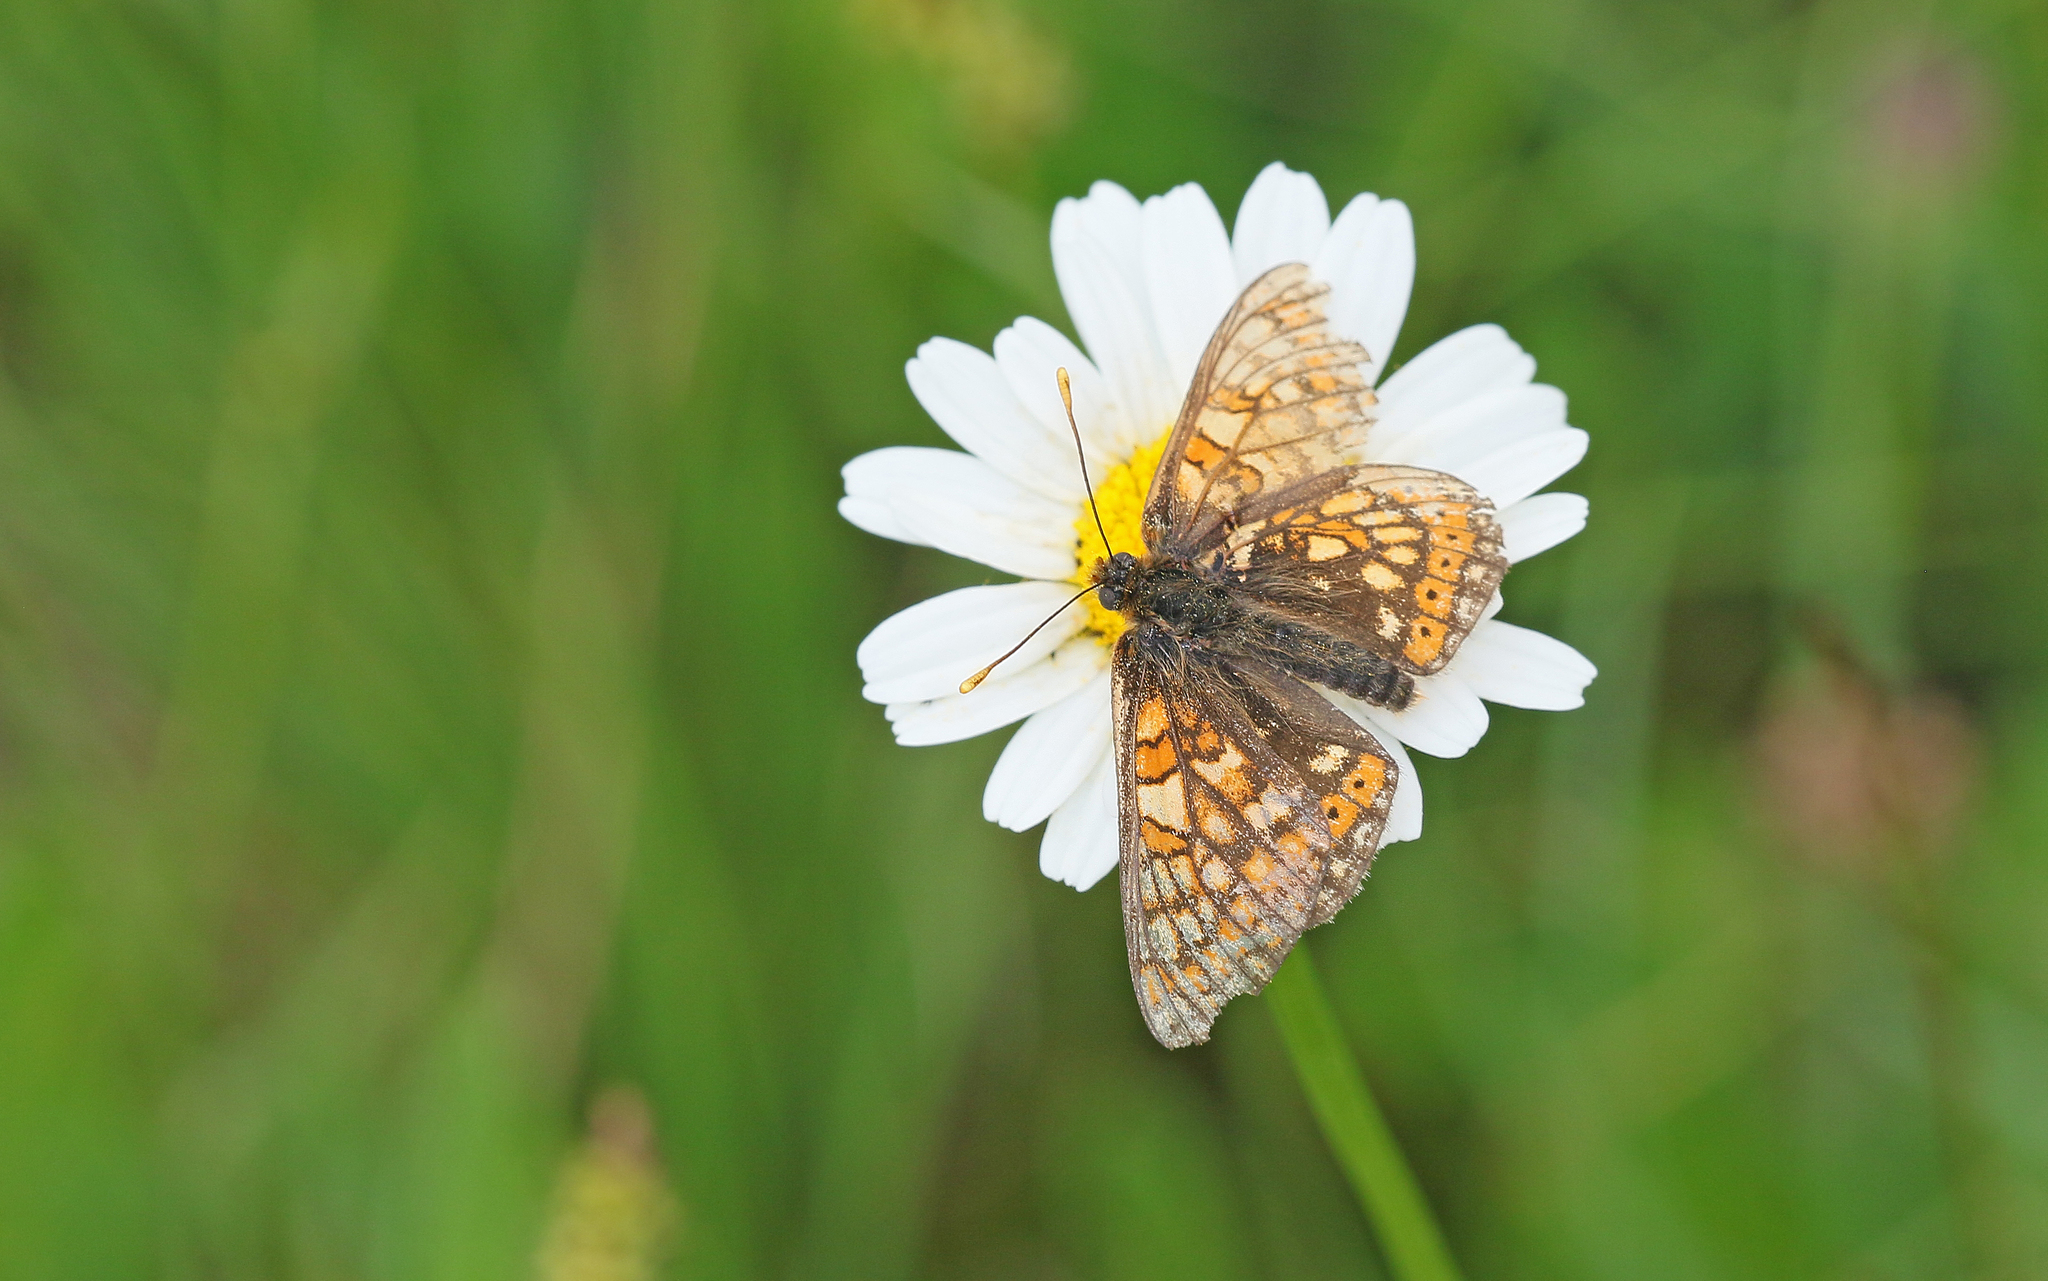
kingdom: Animalia
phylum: Arthropoda
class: Insecta
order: Lepidoptera
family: Nymphalidae
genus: Euphydryas
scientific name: Euphydryas aurinia
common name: Marsh fritillary
